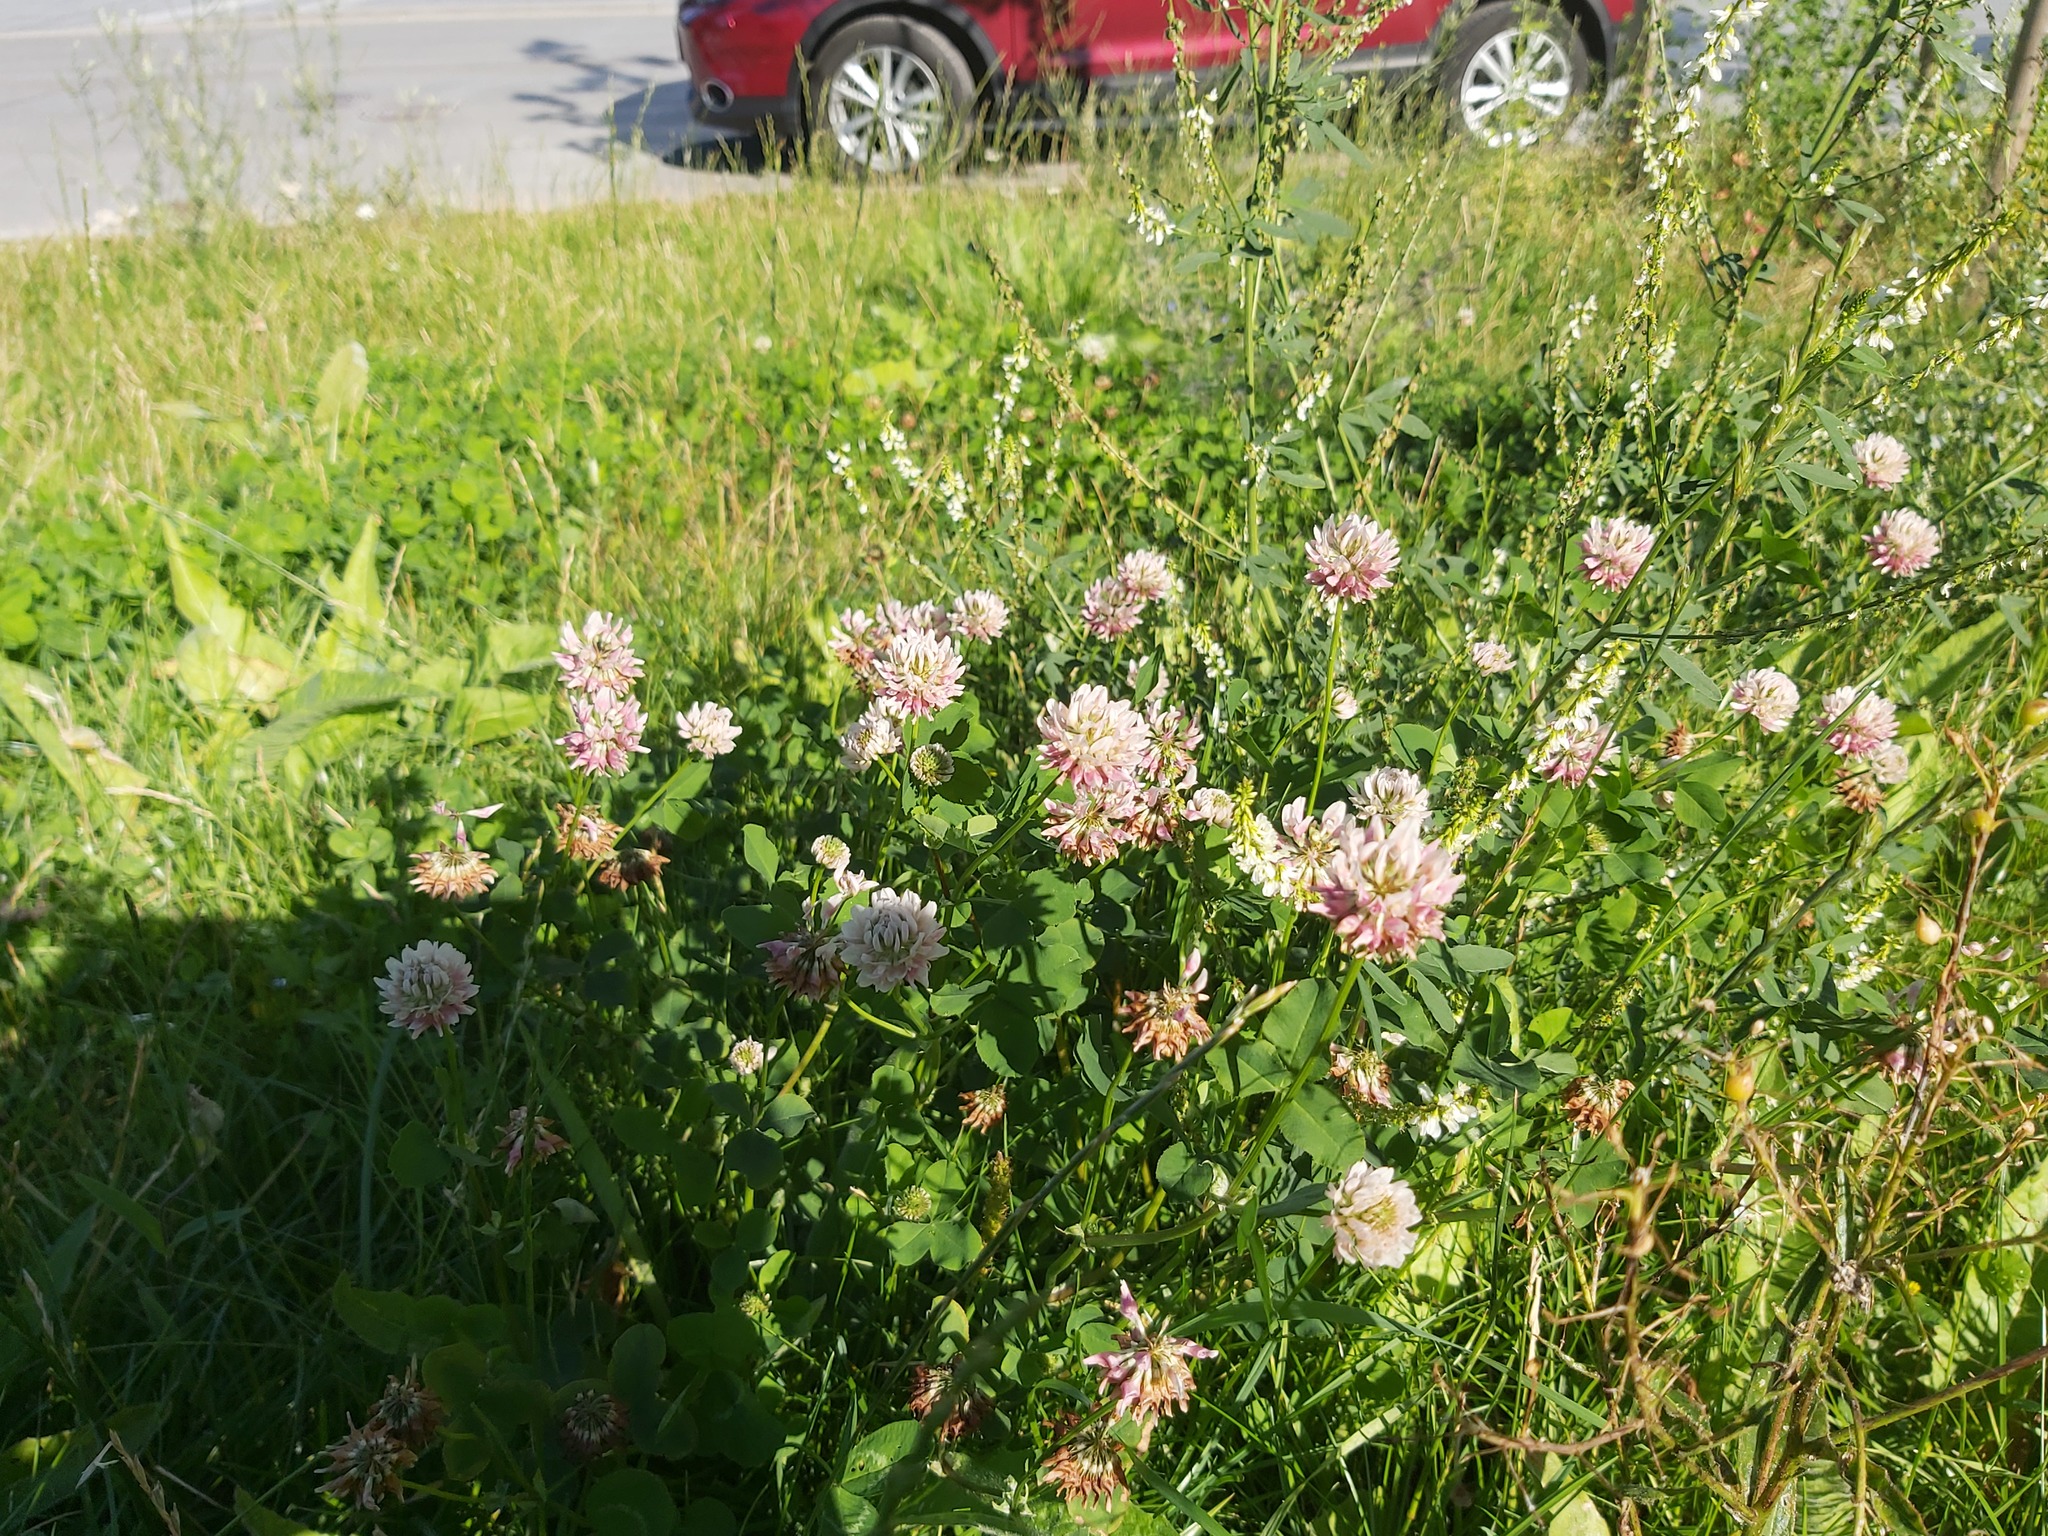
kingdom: Plantae
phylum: Tracheophyta
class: Magnoliopsida
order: Fabales
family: Fabaceae
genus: Trifolium
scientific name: Trifolium hybridum
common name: Alsike clover
